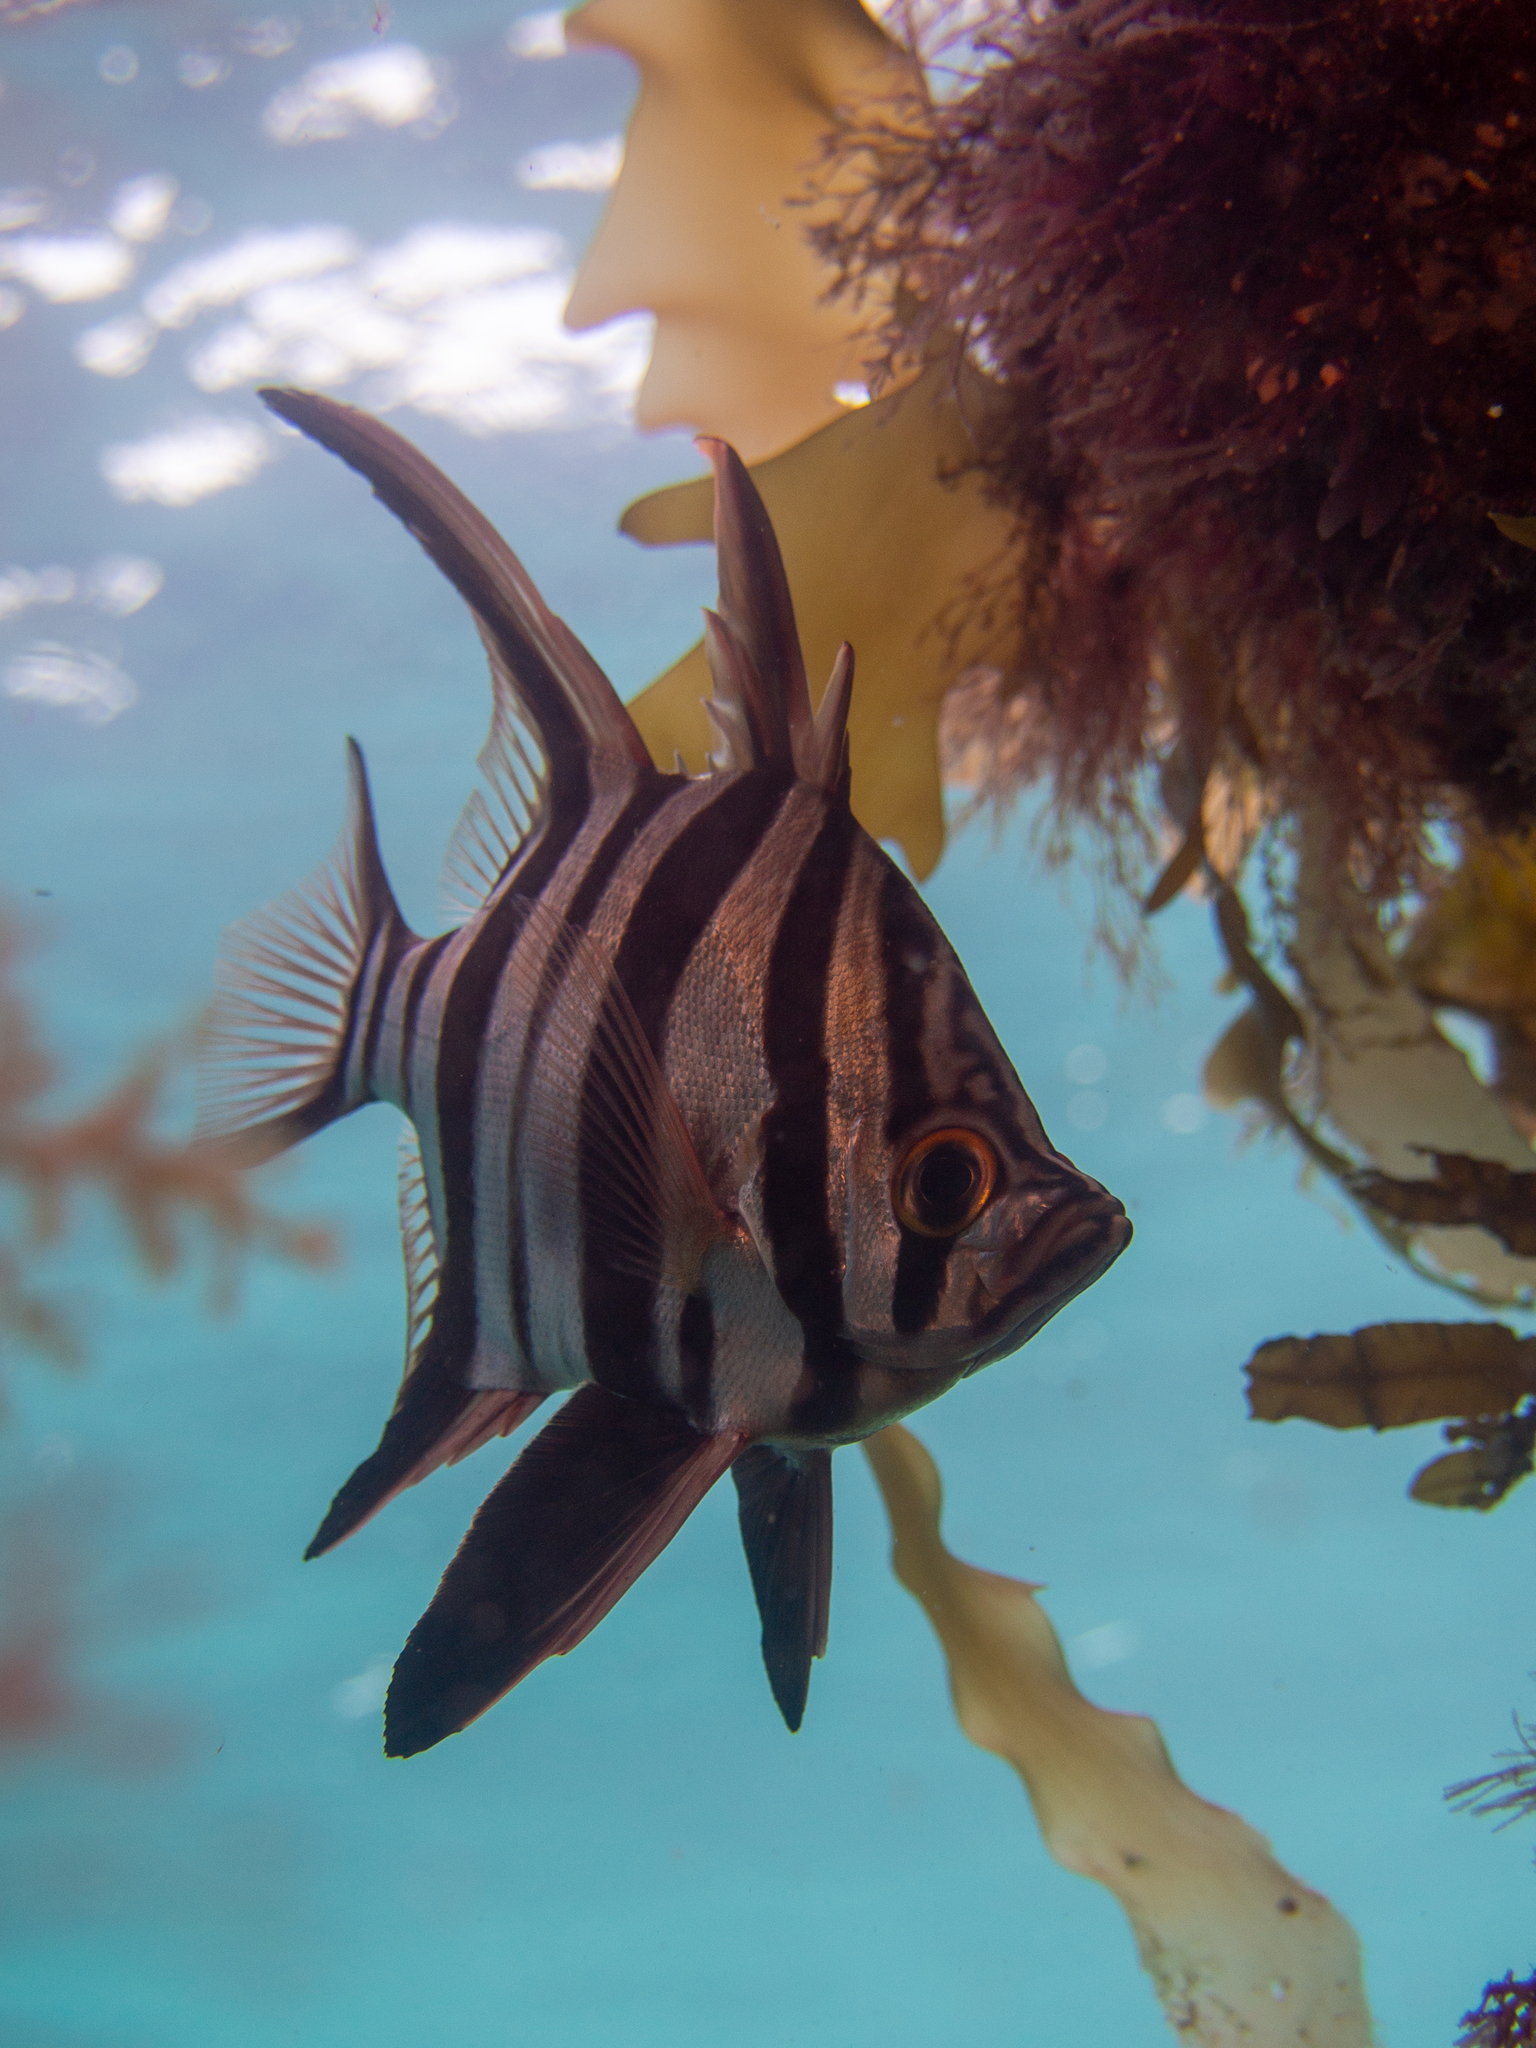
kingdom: Animalia
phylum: Chordata
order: Perciformes
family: Enoplosidae
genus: Enoplosus
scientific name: Enoplosus armatus
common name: Old wife
